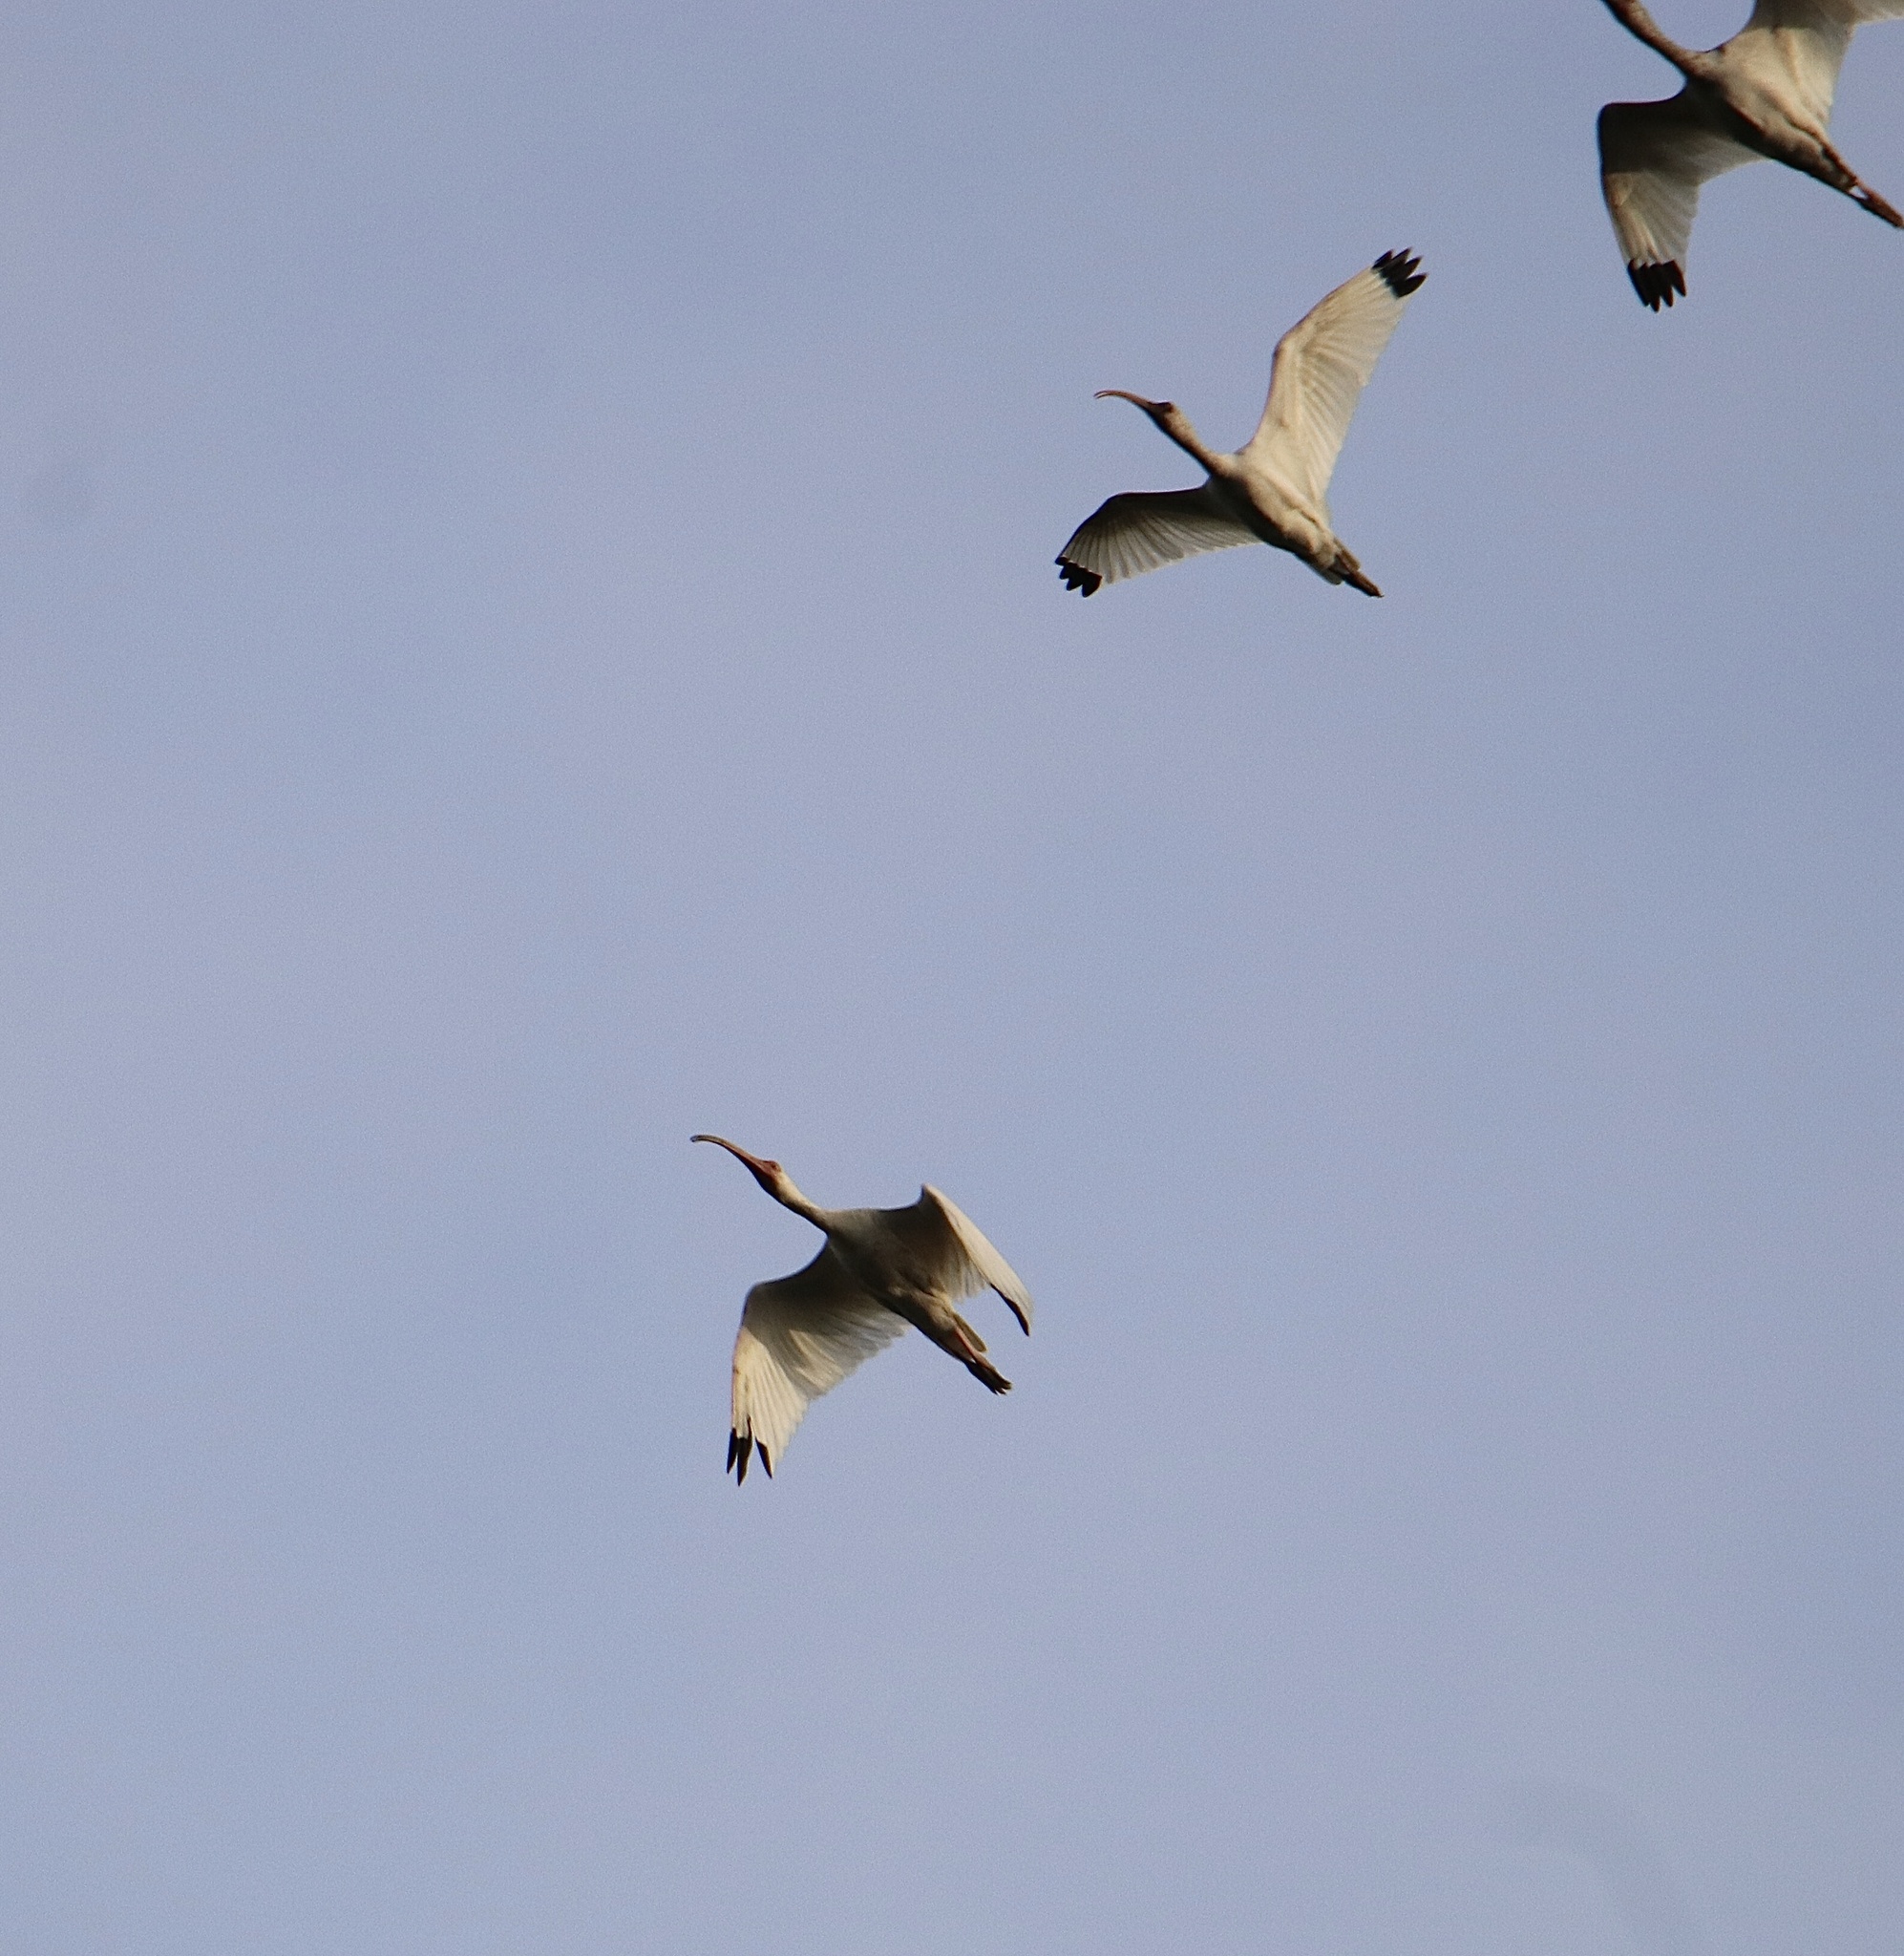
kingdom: Animalia
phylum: Chordata
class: Aves
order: Pelecaniformes
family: Threskiornithidae
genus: Eudocimus
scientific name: Eudocimus albus
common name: White ibis
